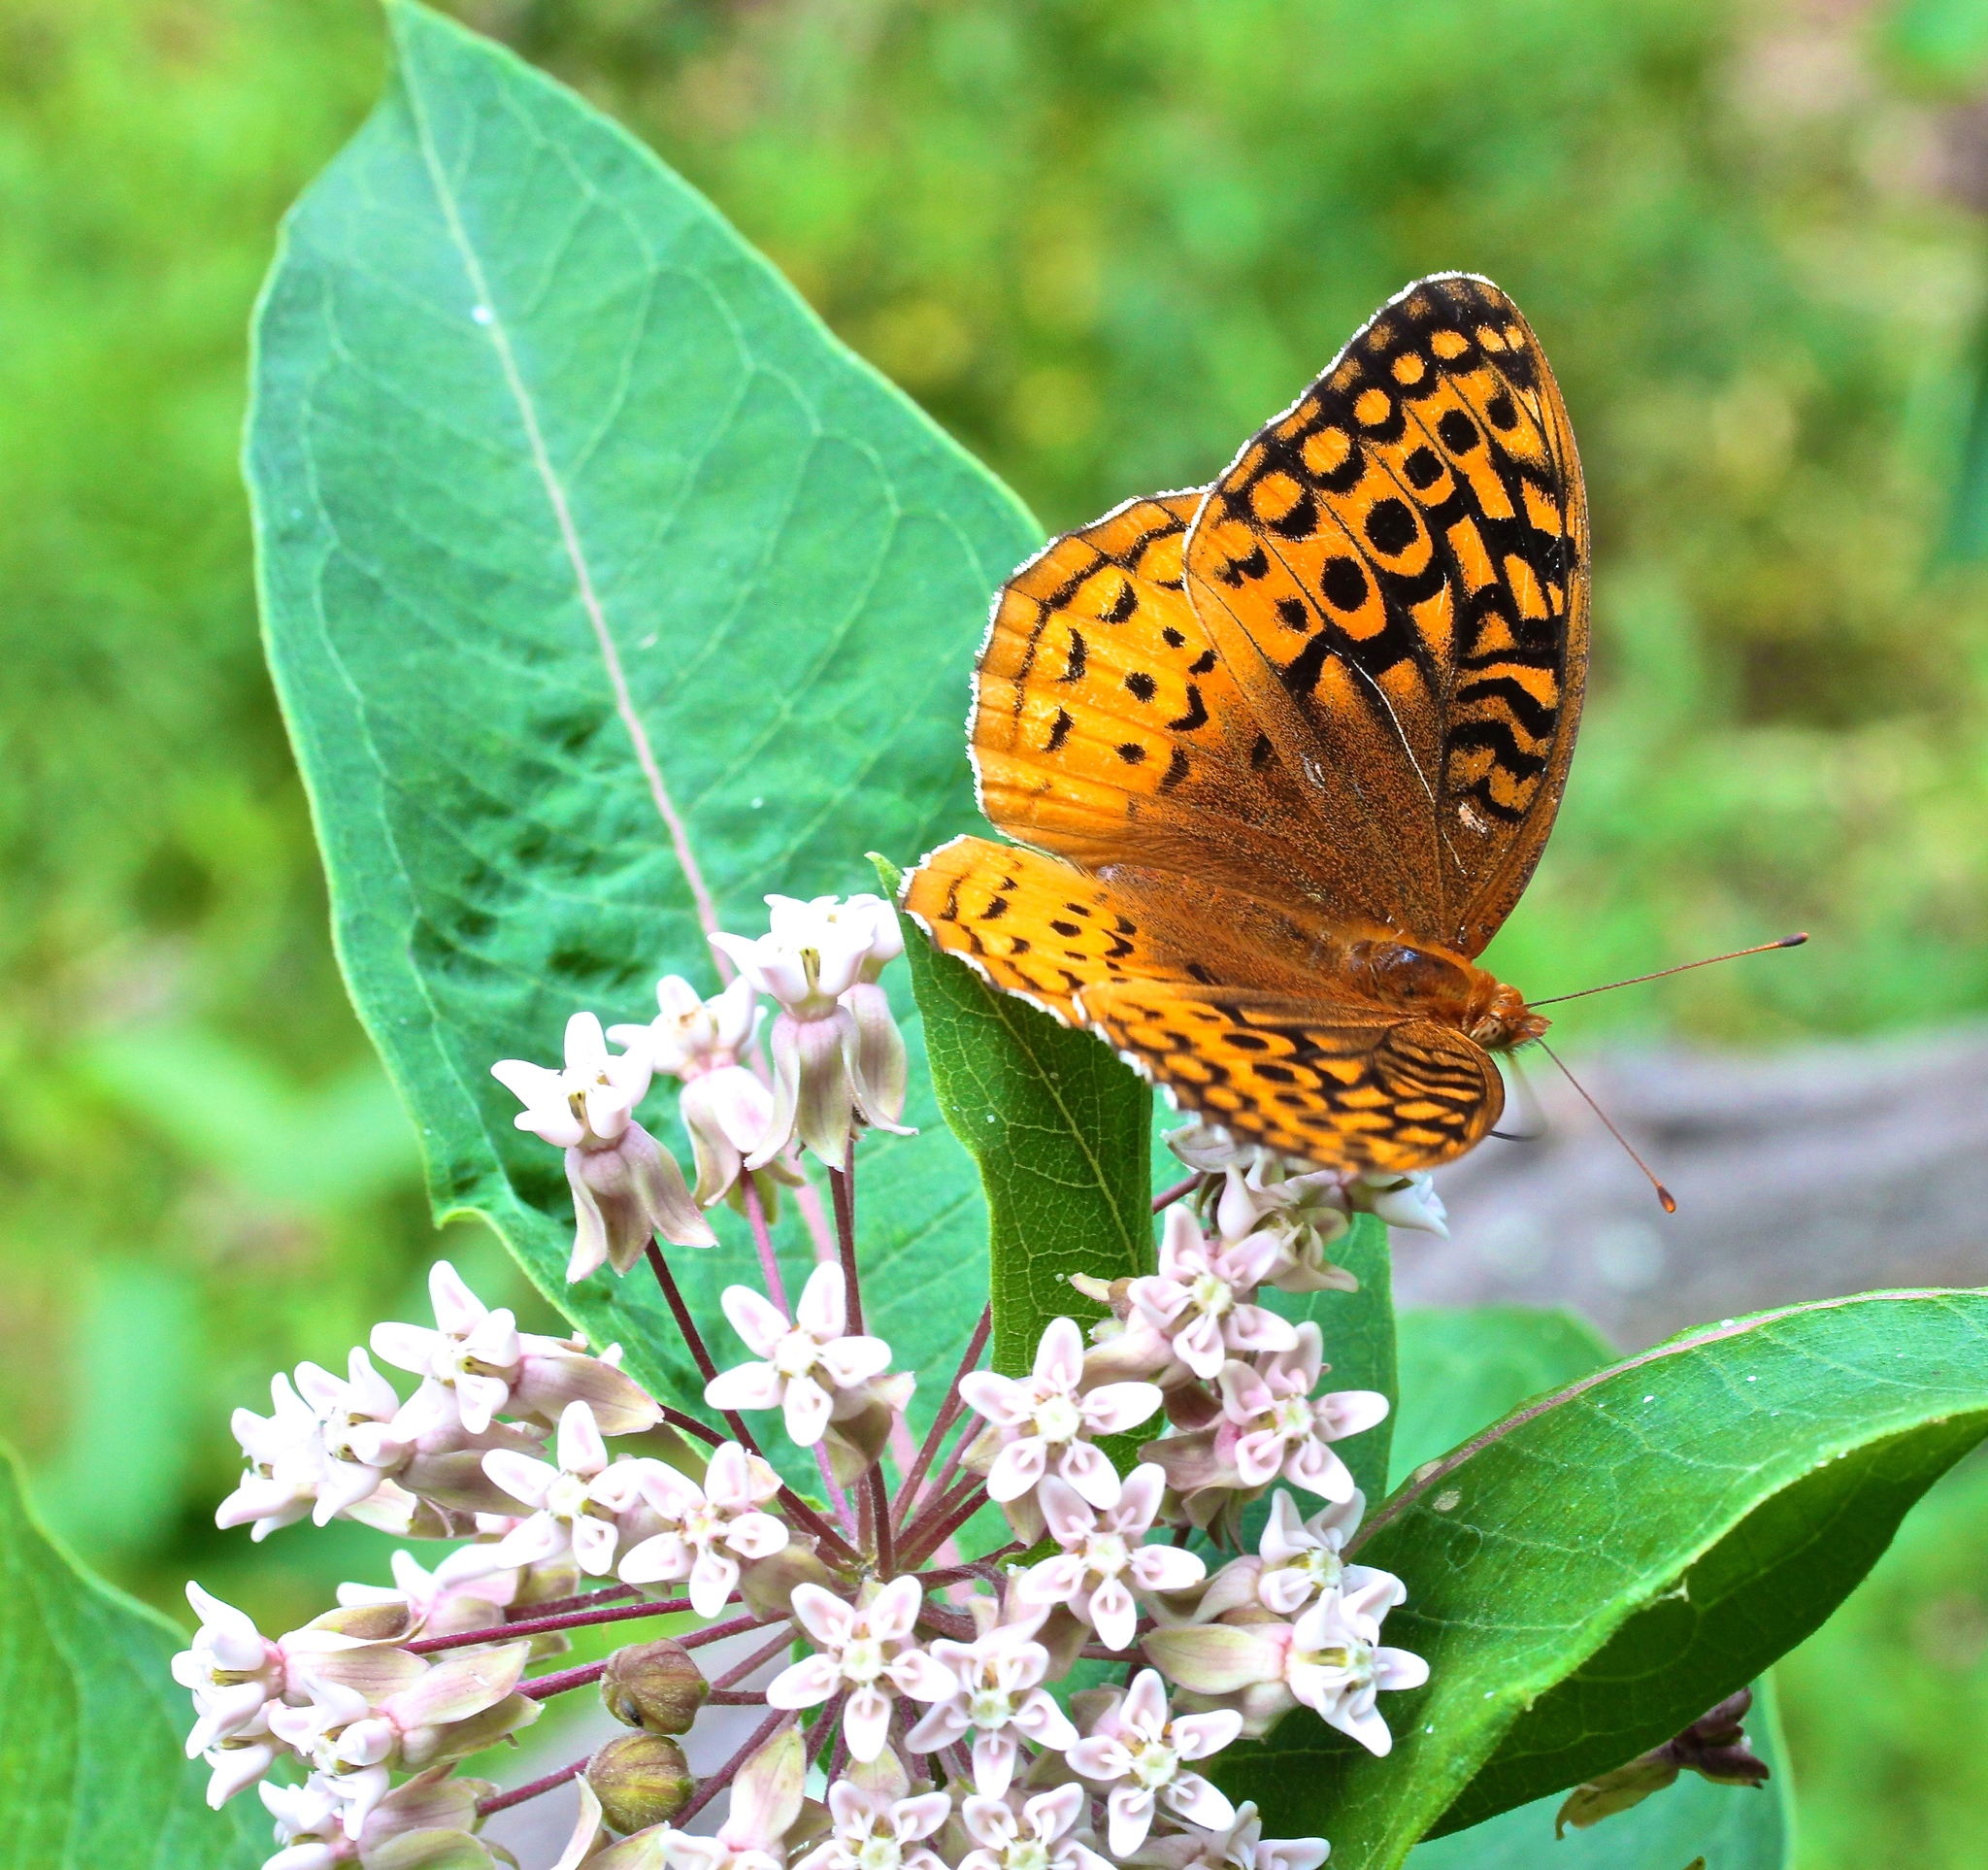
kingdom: Animalia
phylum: Arthropoda
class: Insecta
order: Lepidoptera
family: Nymphalidae
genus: Speyeria
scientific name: Speyeria cybele
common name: Great spangled fritillary
